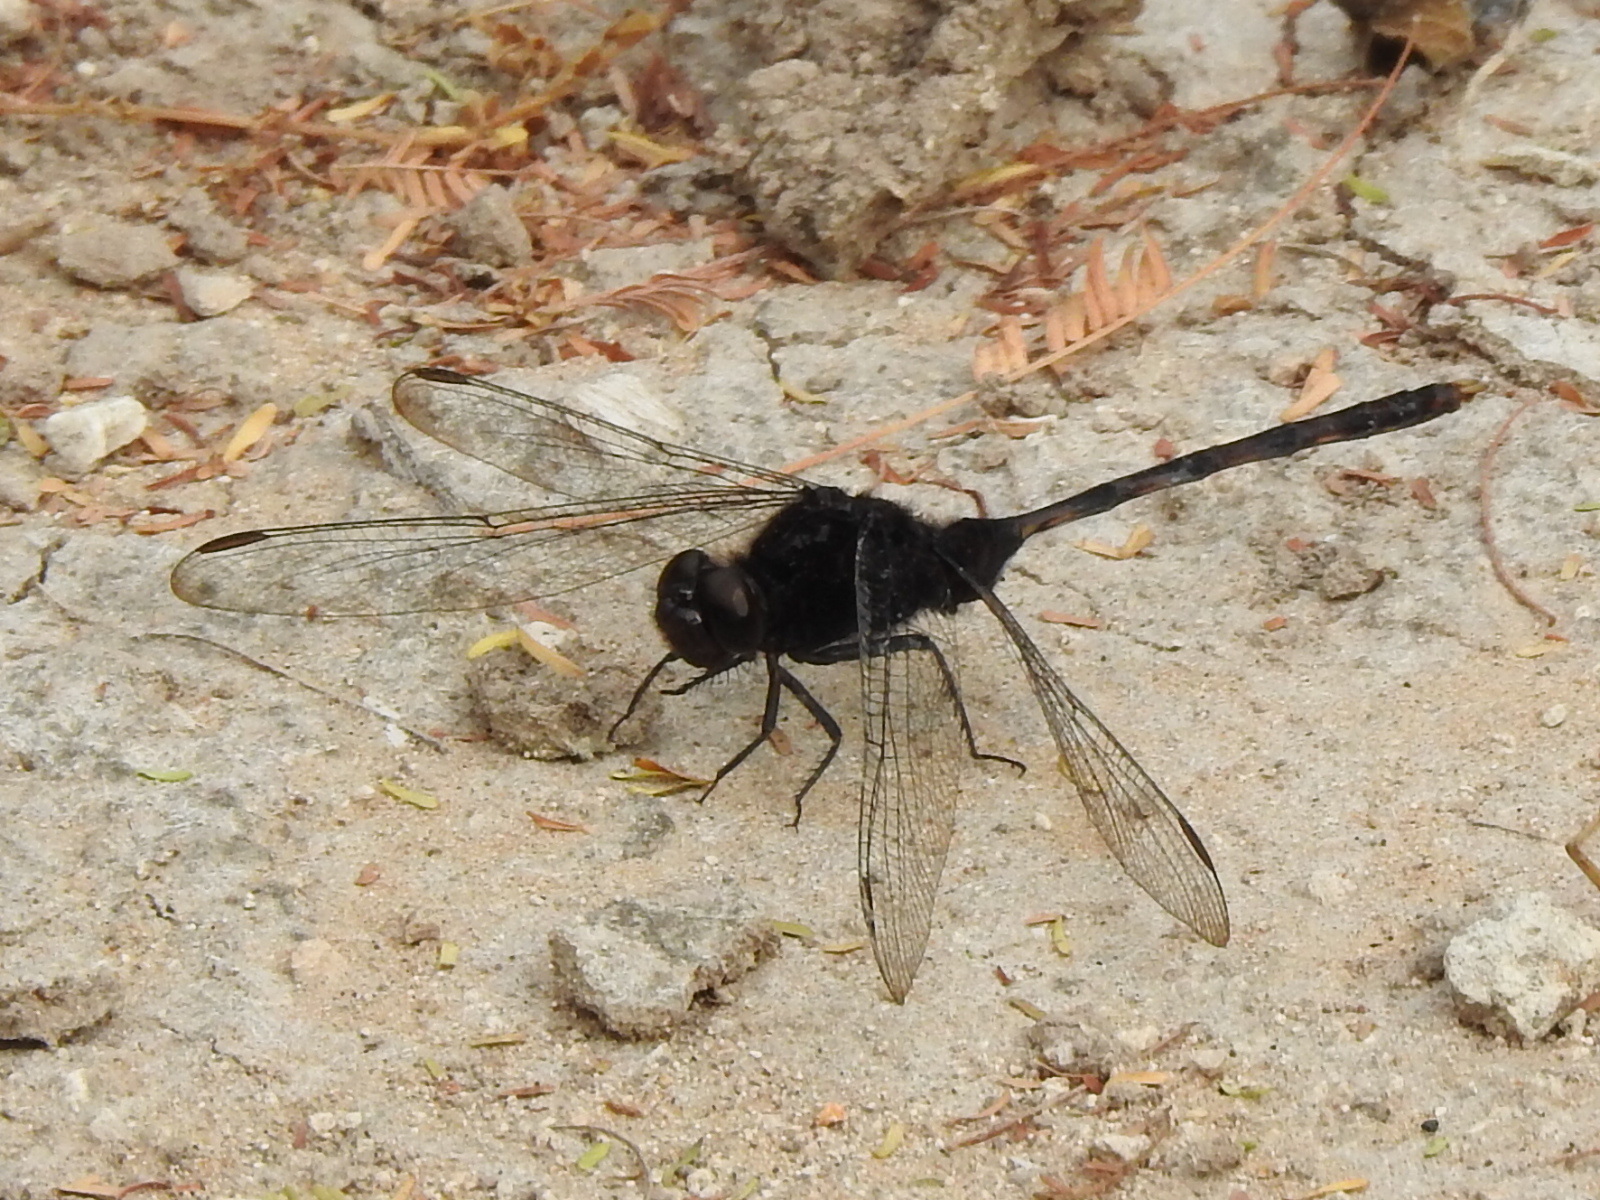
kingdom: Animalia
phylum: Arthropoda
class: Insecta
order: Odonata
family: Libellulidae
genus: Erythemis
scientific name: Erythemis plebeja
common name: Pin-tailed pondhawk
